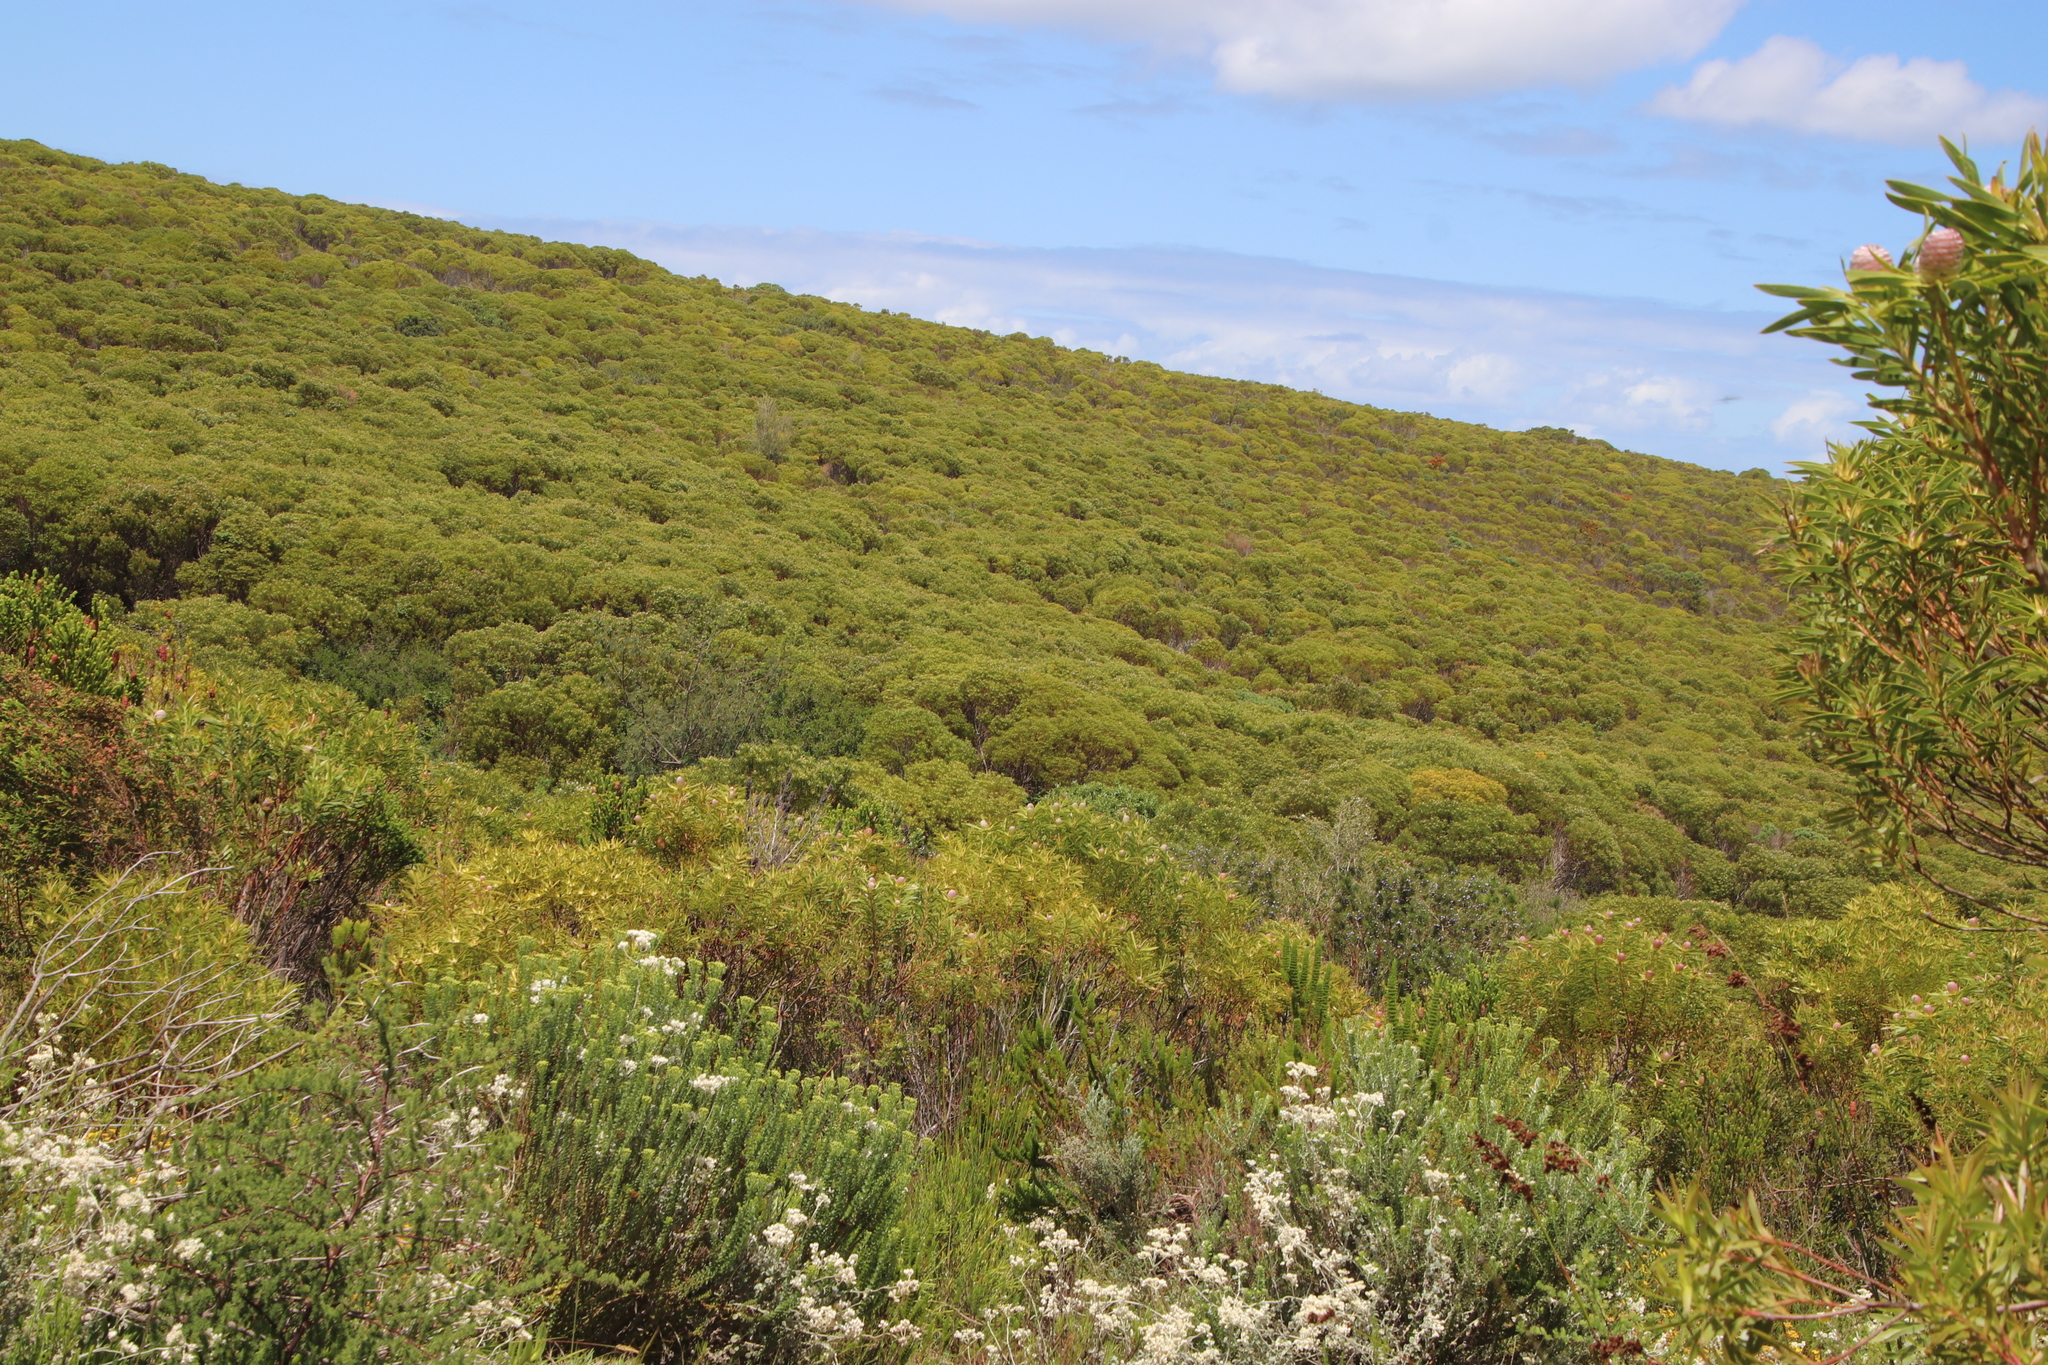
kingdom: Plantae
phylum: Tracheophyta
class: Magnoliopsida
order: Proteales
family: Proteaceae
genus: Leucadendron
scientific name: Leucadendron coniferum
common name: Dune conebush
